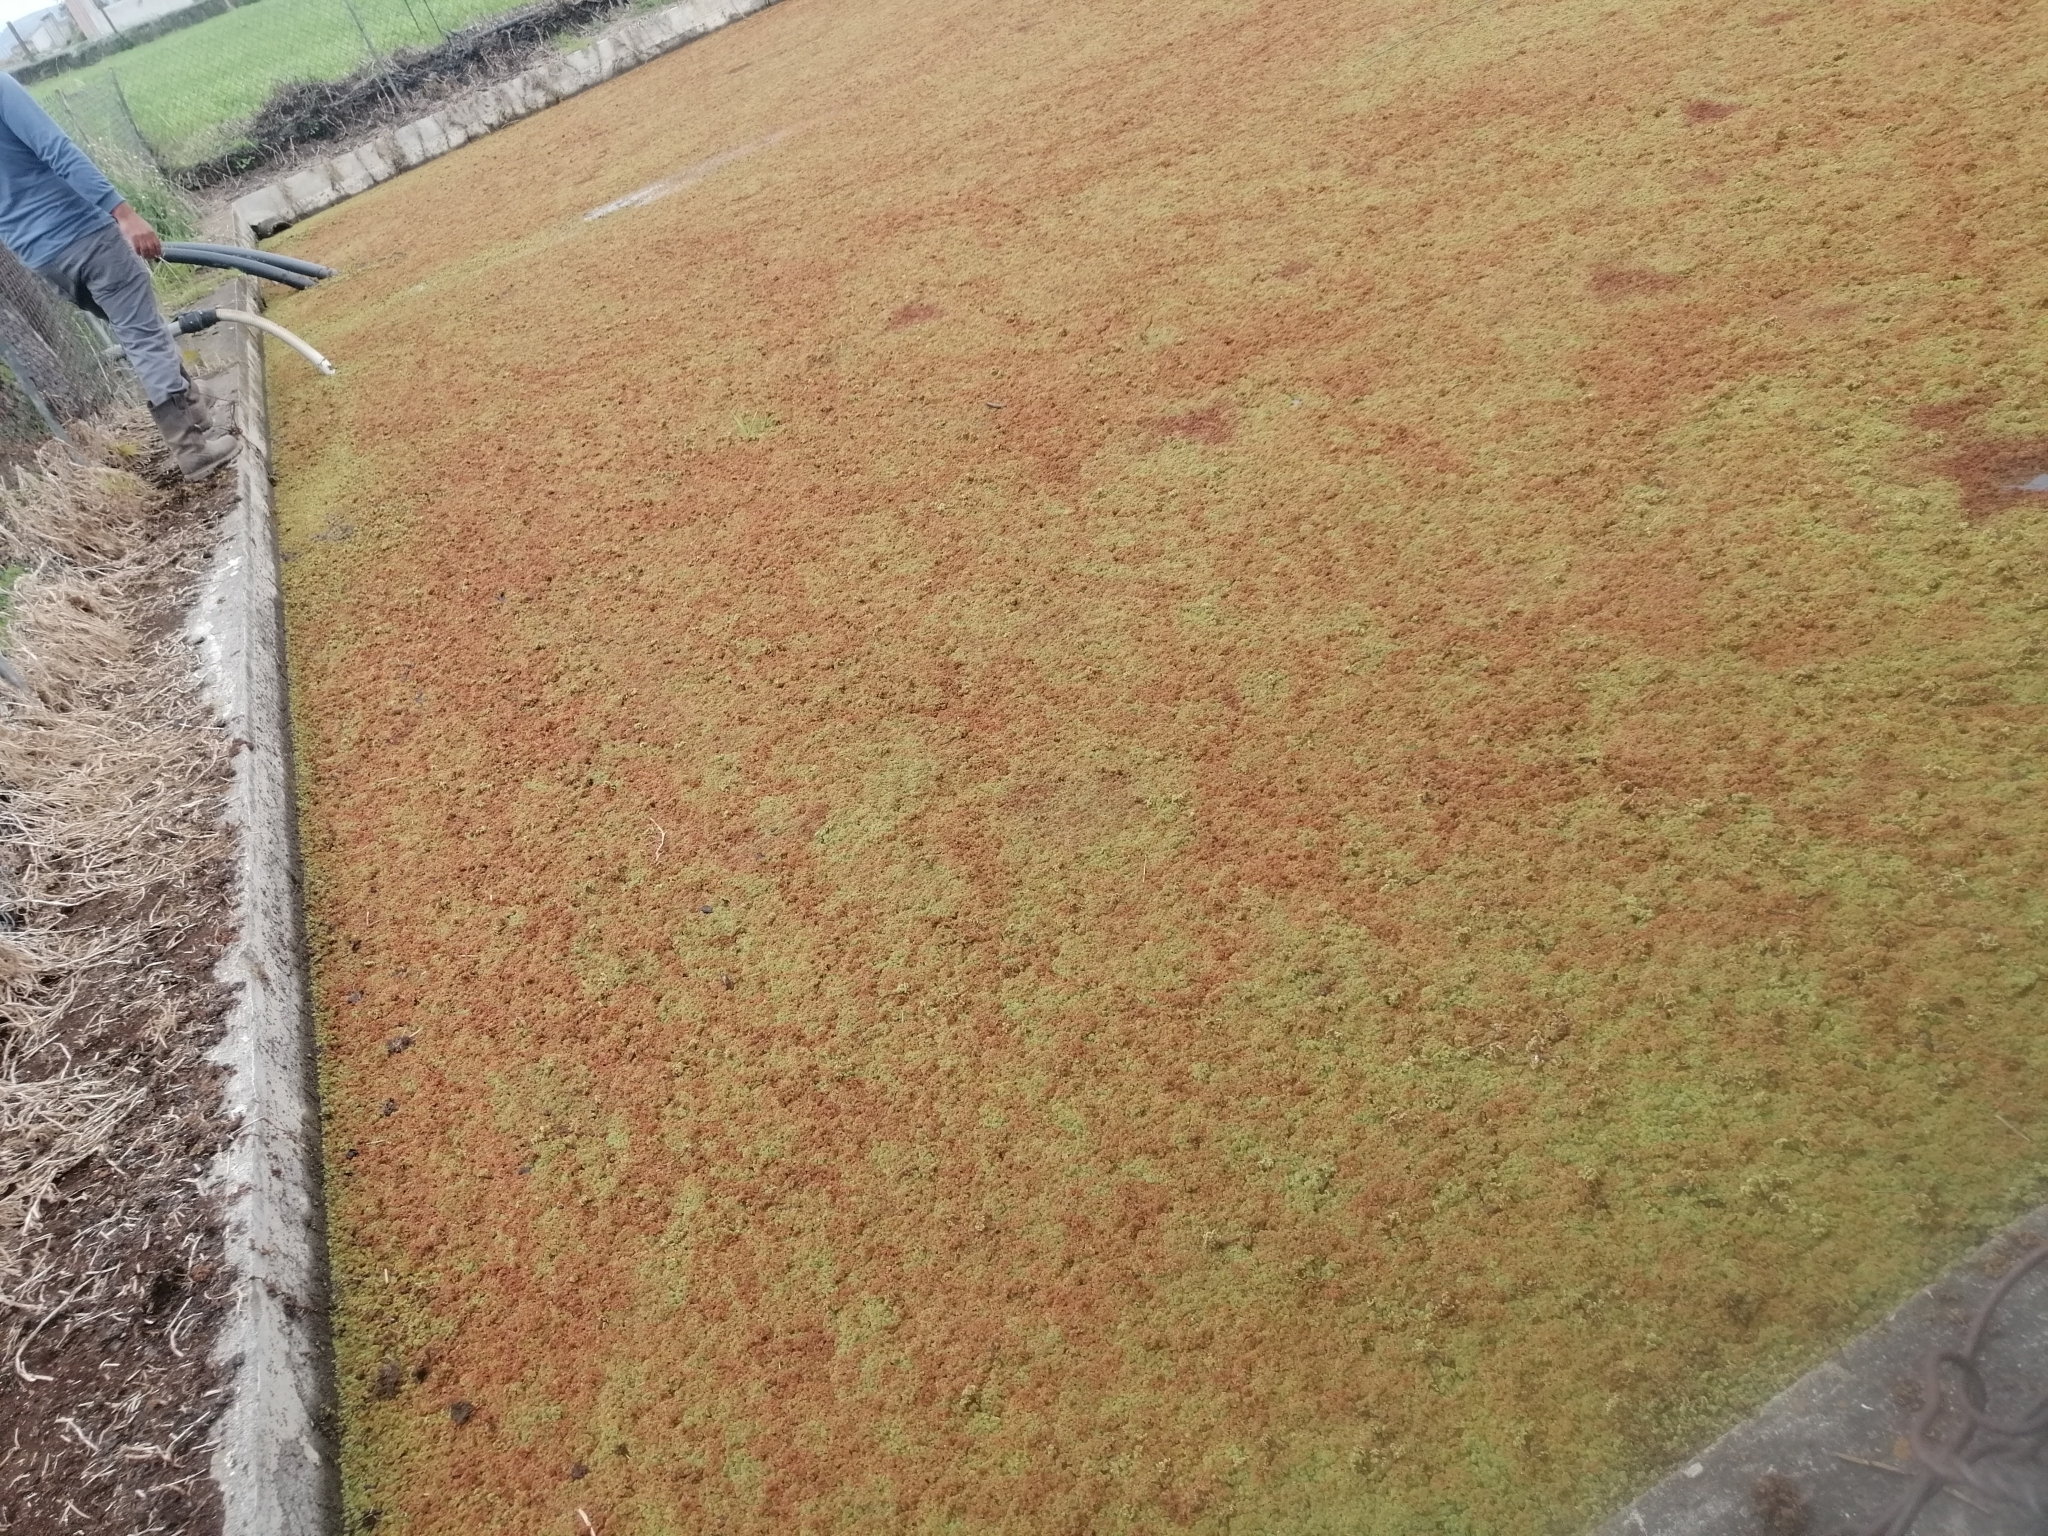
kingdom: Plantae
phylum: Tracheophyta
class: Polypodiopsida
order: Salviniales
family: Salviniaceae
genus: Azolla
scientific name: Azolla filiculoides
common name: Water fern
